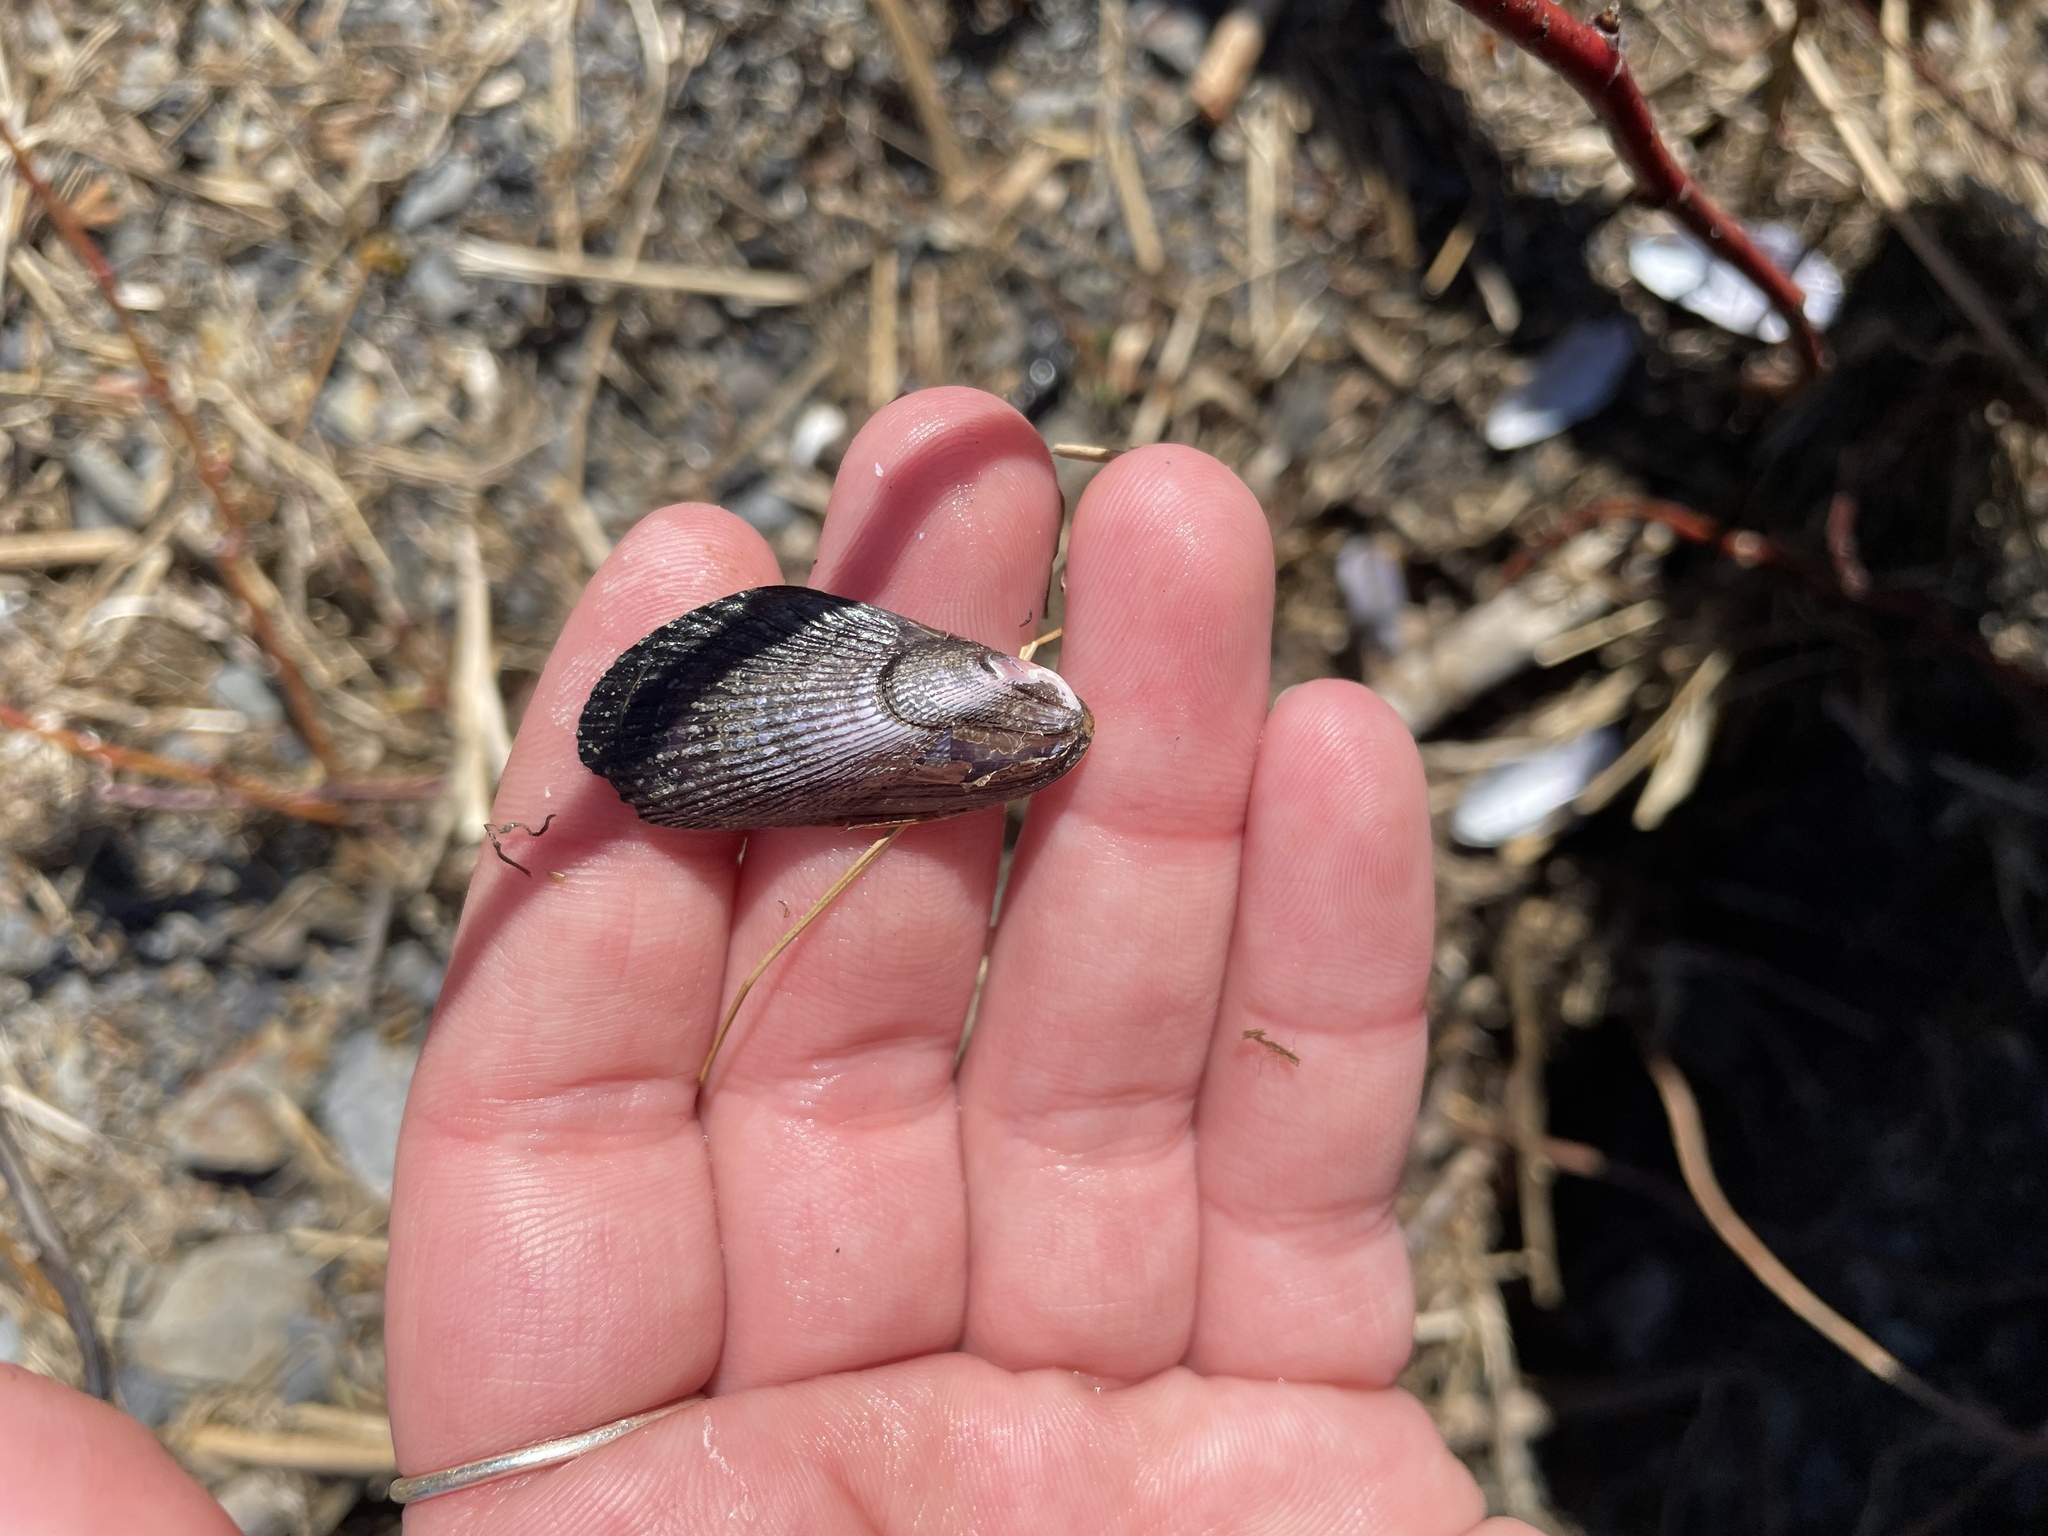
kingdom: Animalia
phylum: Mollusca
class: Bivalvia
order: Mytilida
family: Mytilidae
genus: Geukensia
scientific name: Geukensia demissa
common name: Ribbed mussel
